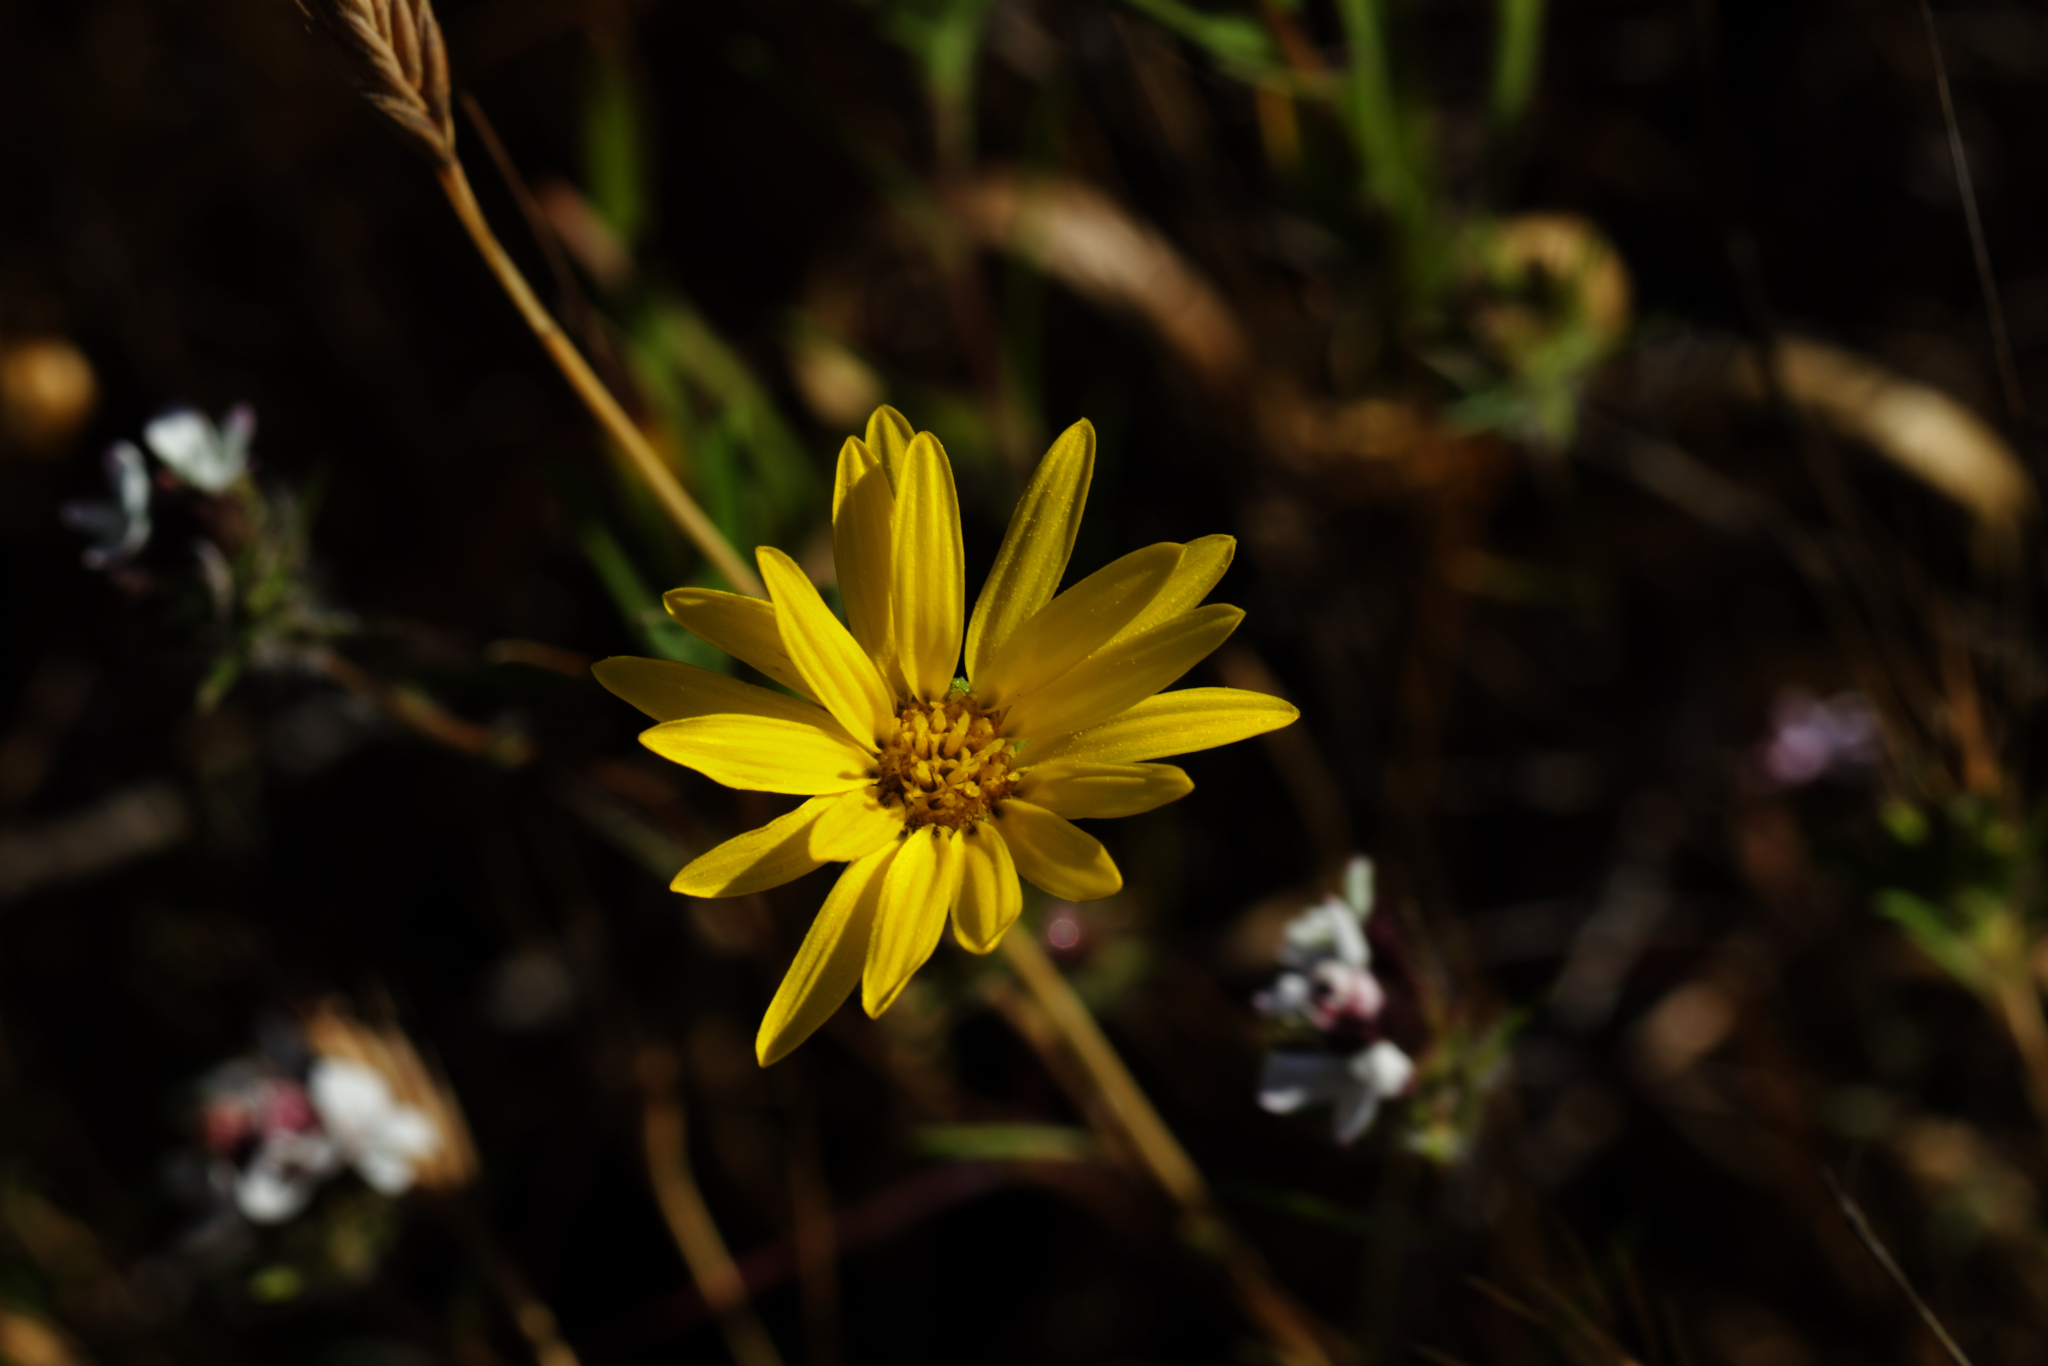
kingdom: Plantae
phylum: Tracheophyta
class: Magnoliopsida
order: Asterales
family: Asteraceae
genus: Grindelia
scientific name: Grindelia hirsutula
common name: Hairy gumweed
